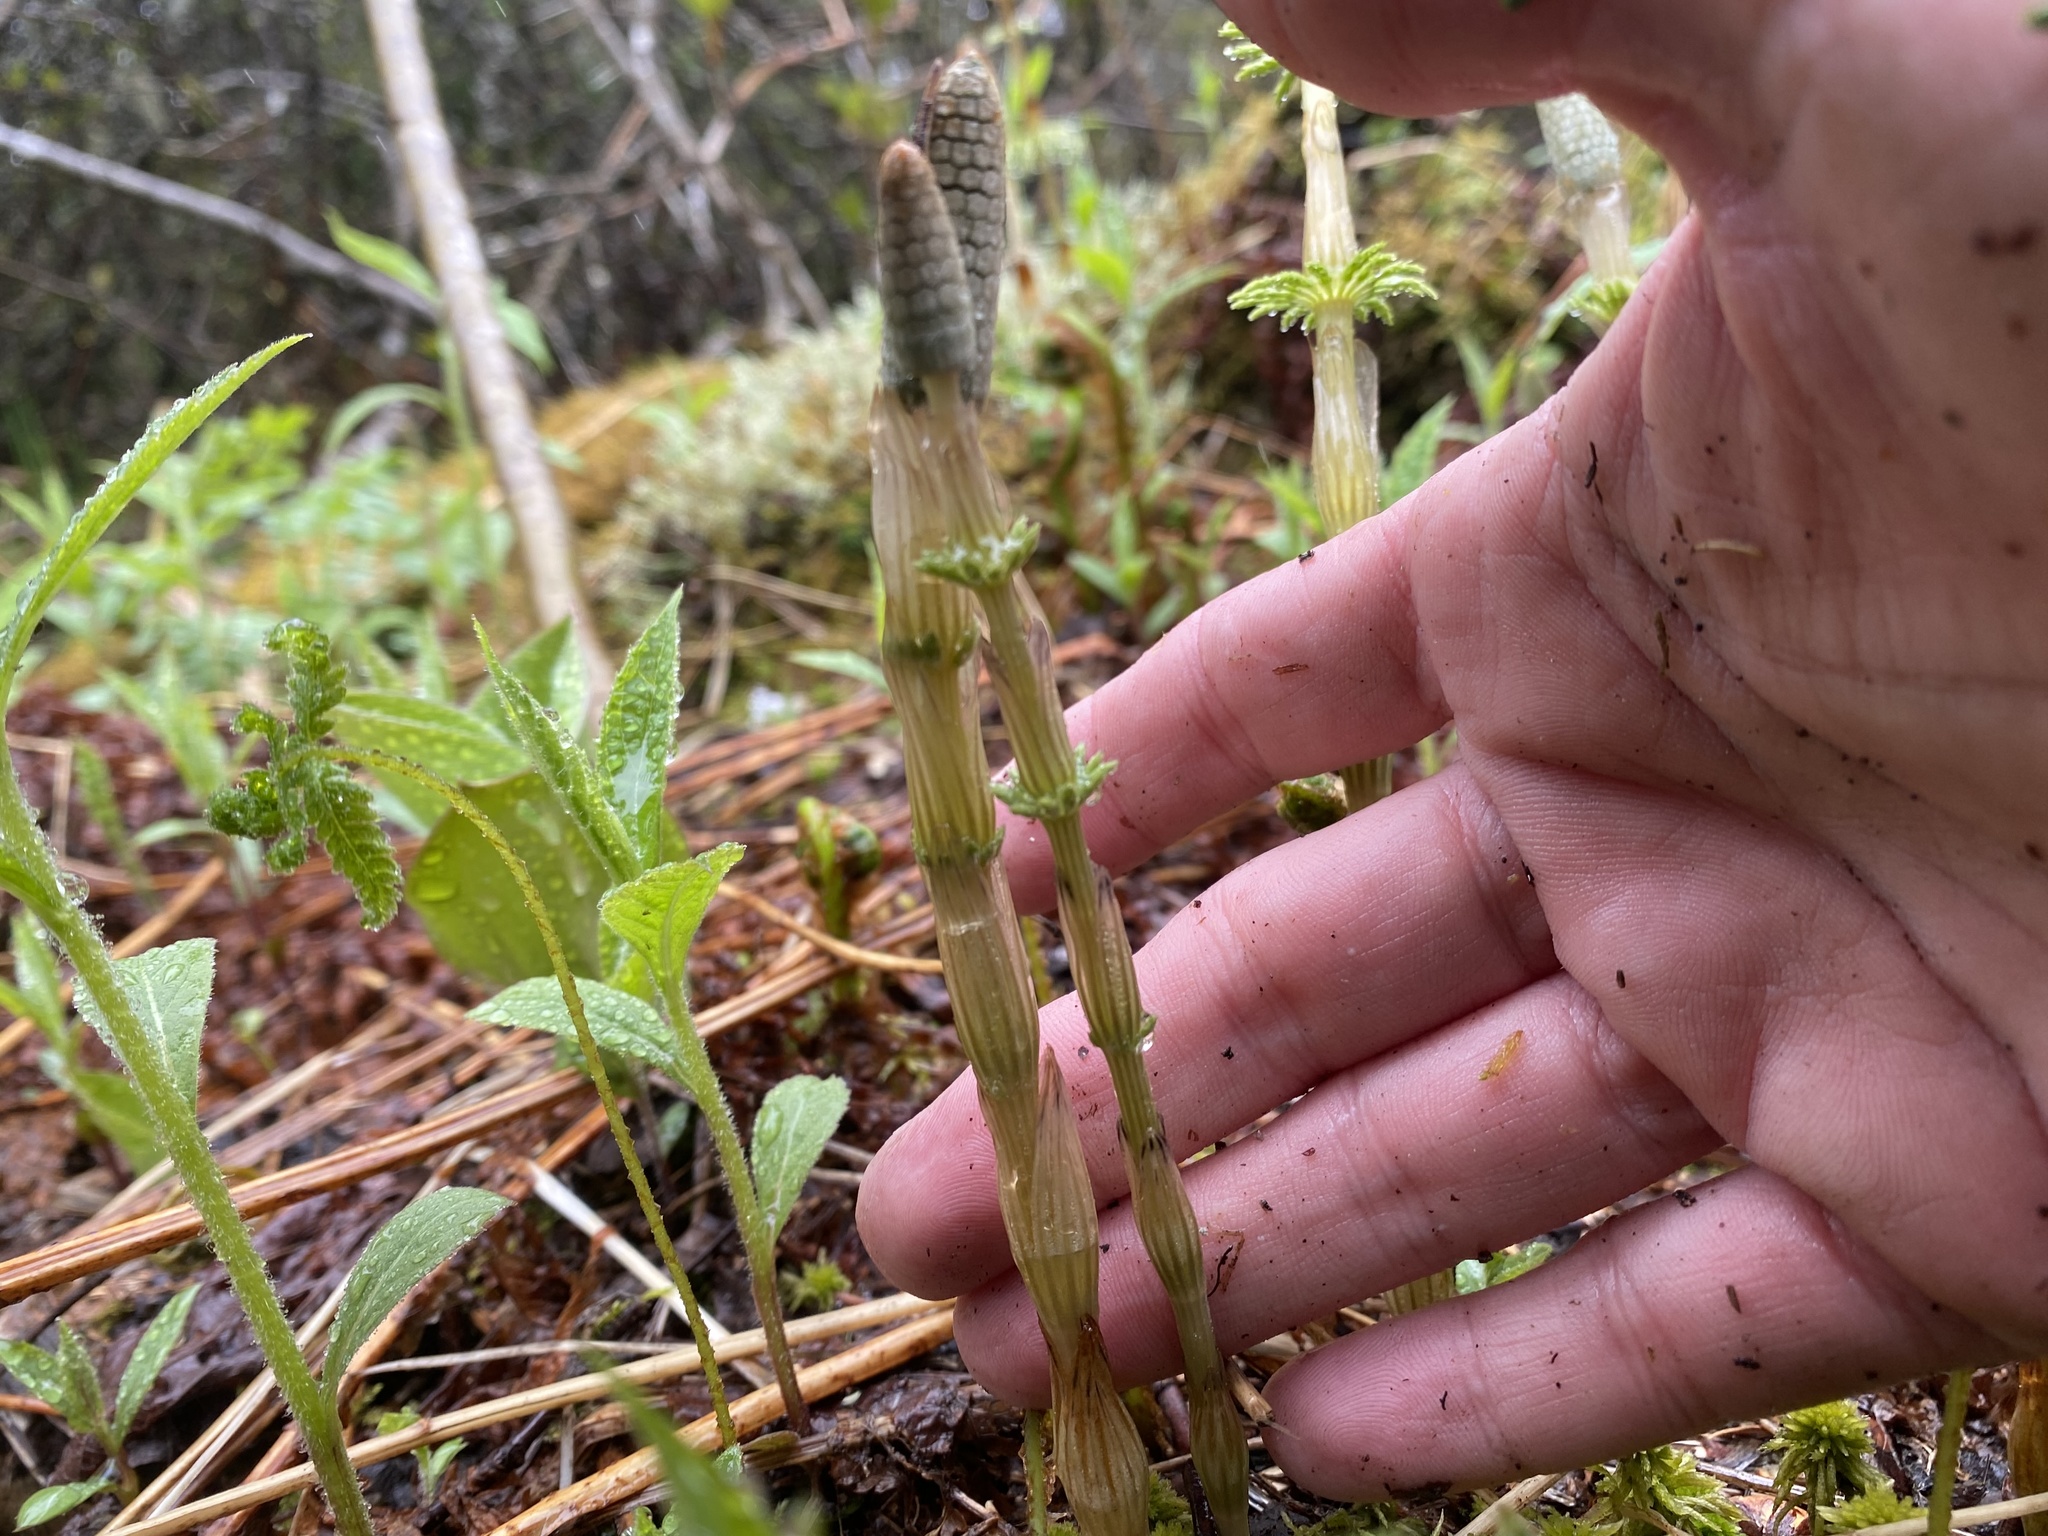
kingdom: Plantae
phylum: Tracheophyta
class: Polypodiopsida
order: Equisetales
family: Equisetaceae
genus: Equisetum
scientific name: Equisetum sylvaticum
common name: Wood horsetail
